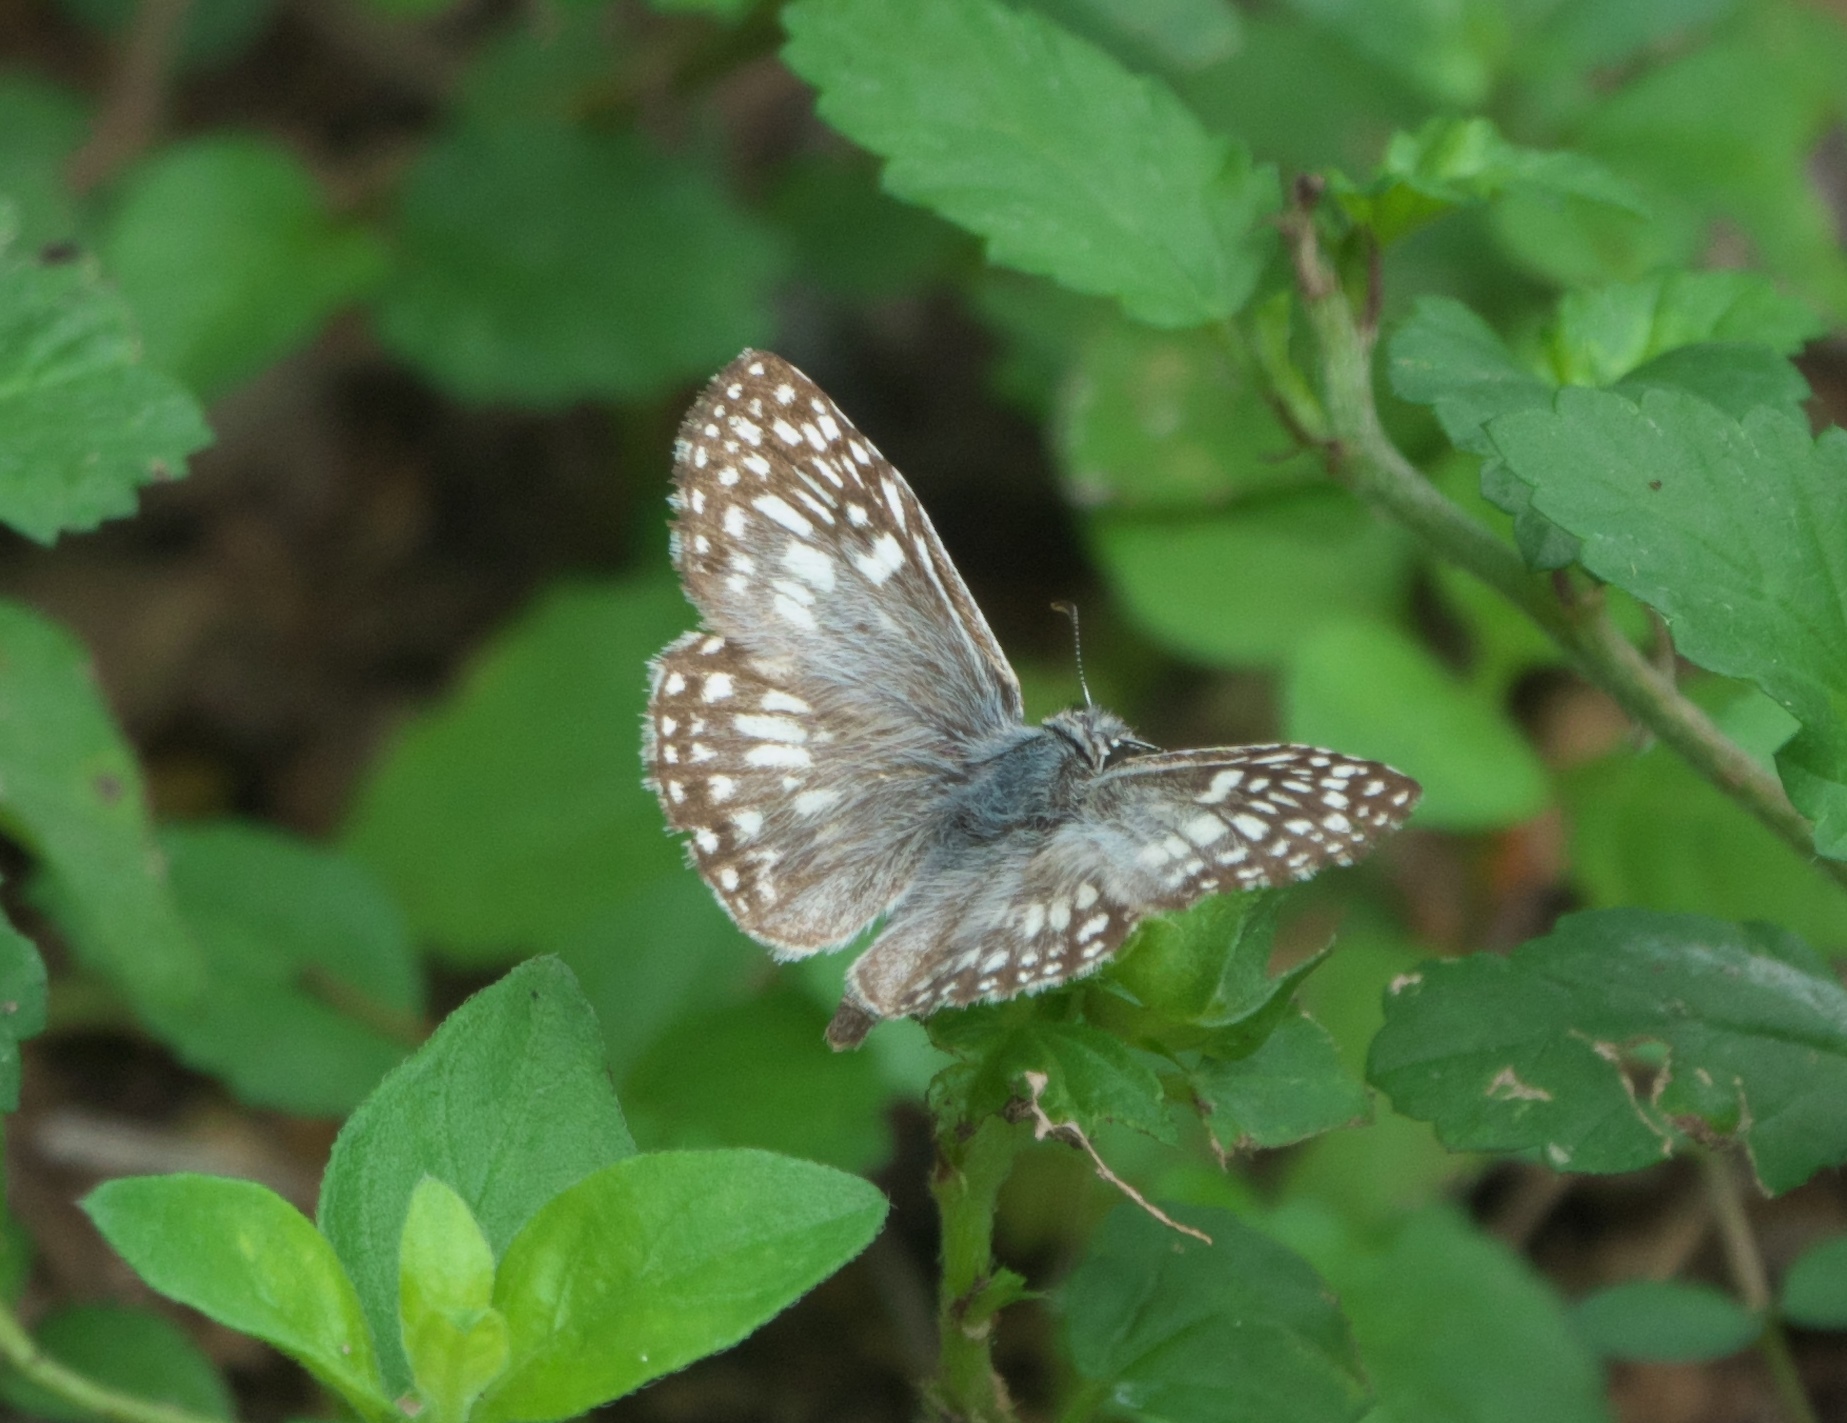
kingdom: Animalia
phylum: Arthropoda
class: Insecta
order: Lepidoptera
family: Hesperiidae
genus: Pyrgus
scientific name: Pyrgus oileus
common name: Tropical checkered-skipper
